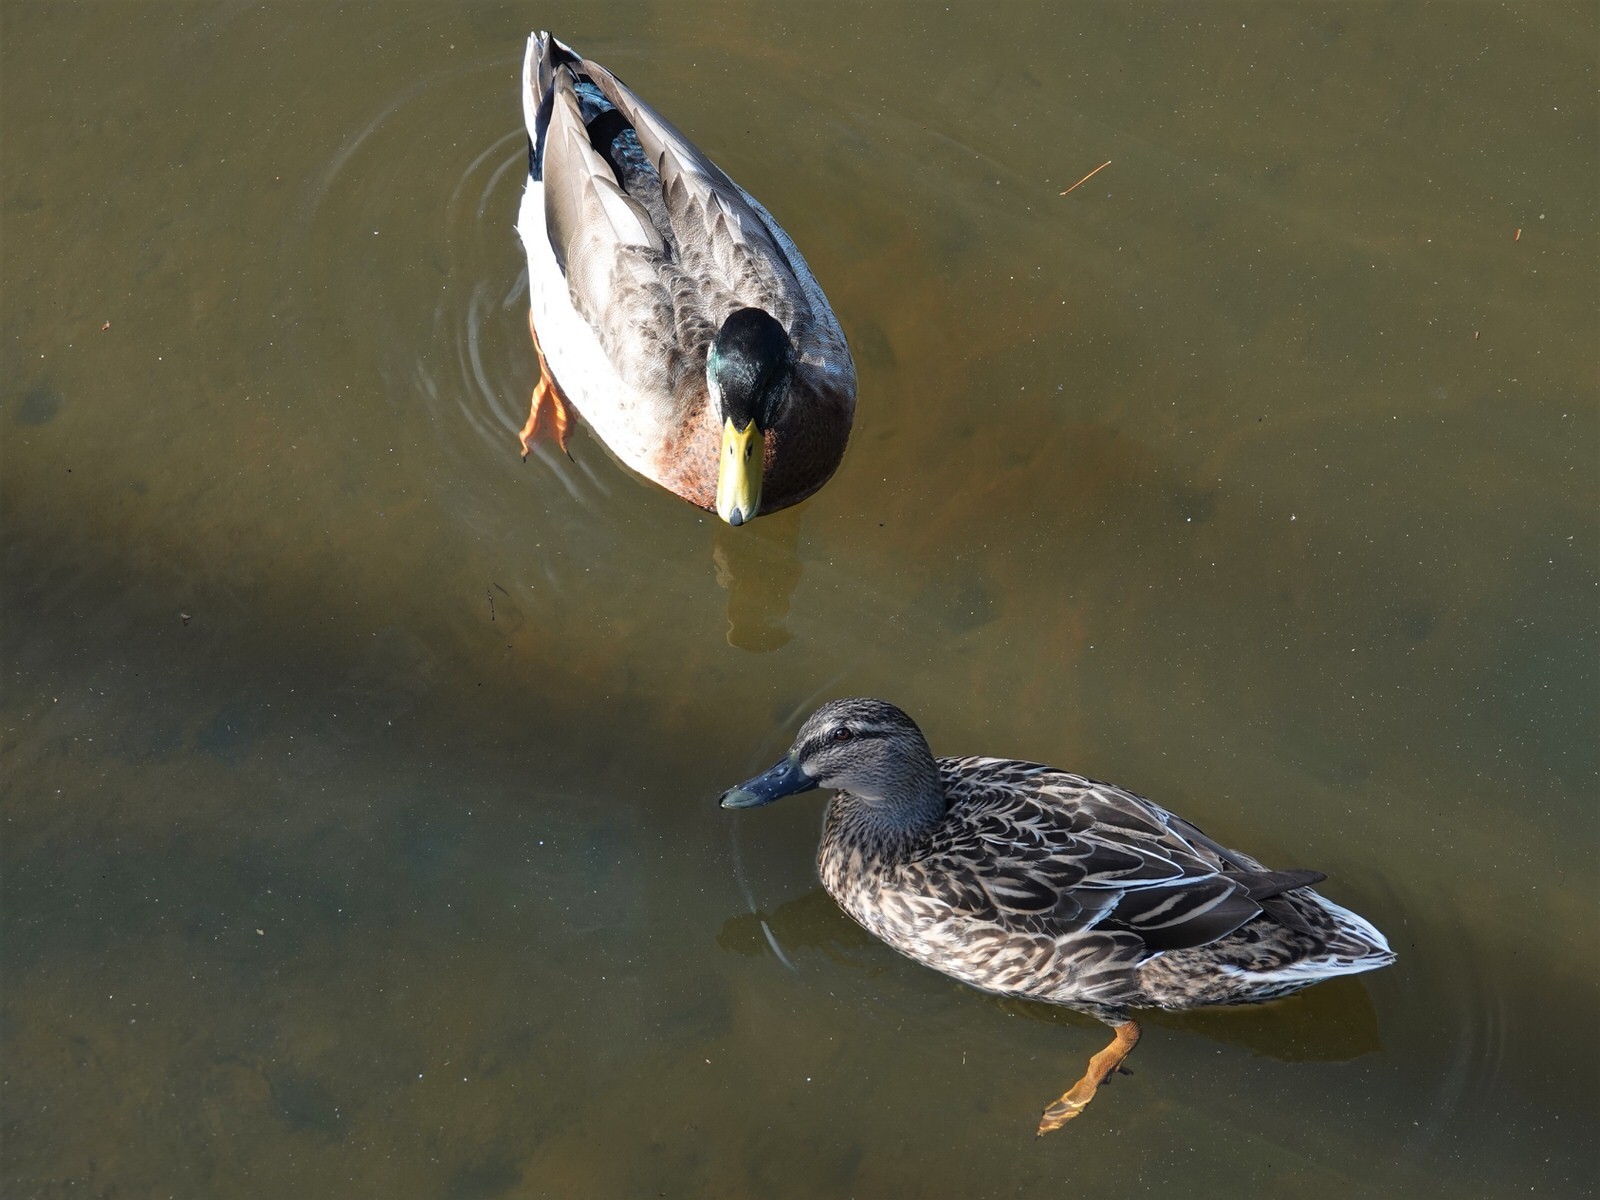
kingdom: Animalia
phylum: Chordata
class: Aves
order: Anseriformes
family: Anatidae
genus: Anas
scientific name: Anas
